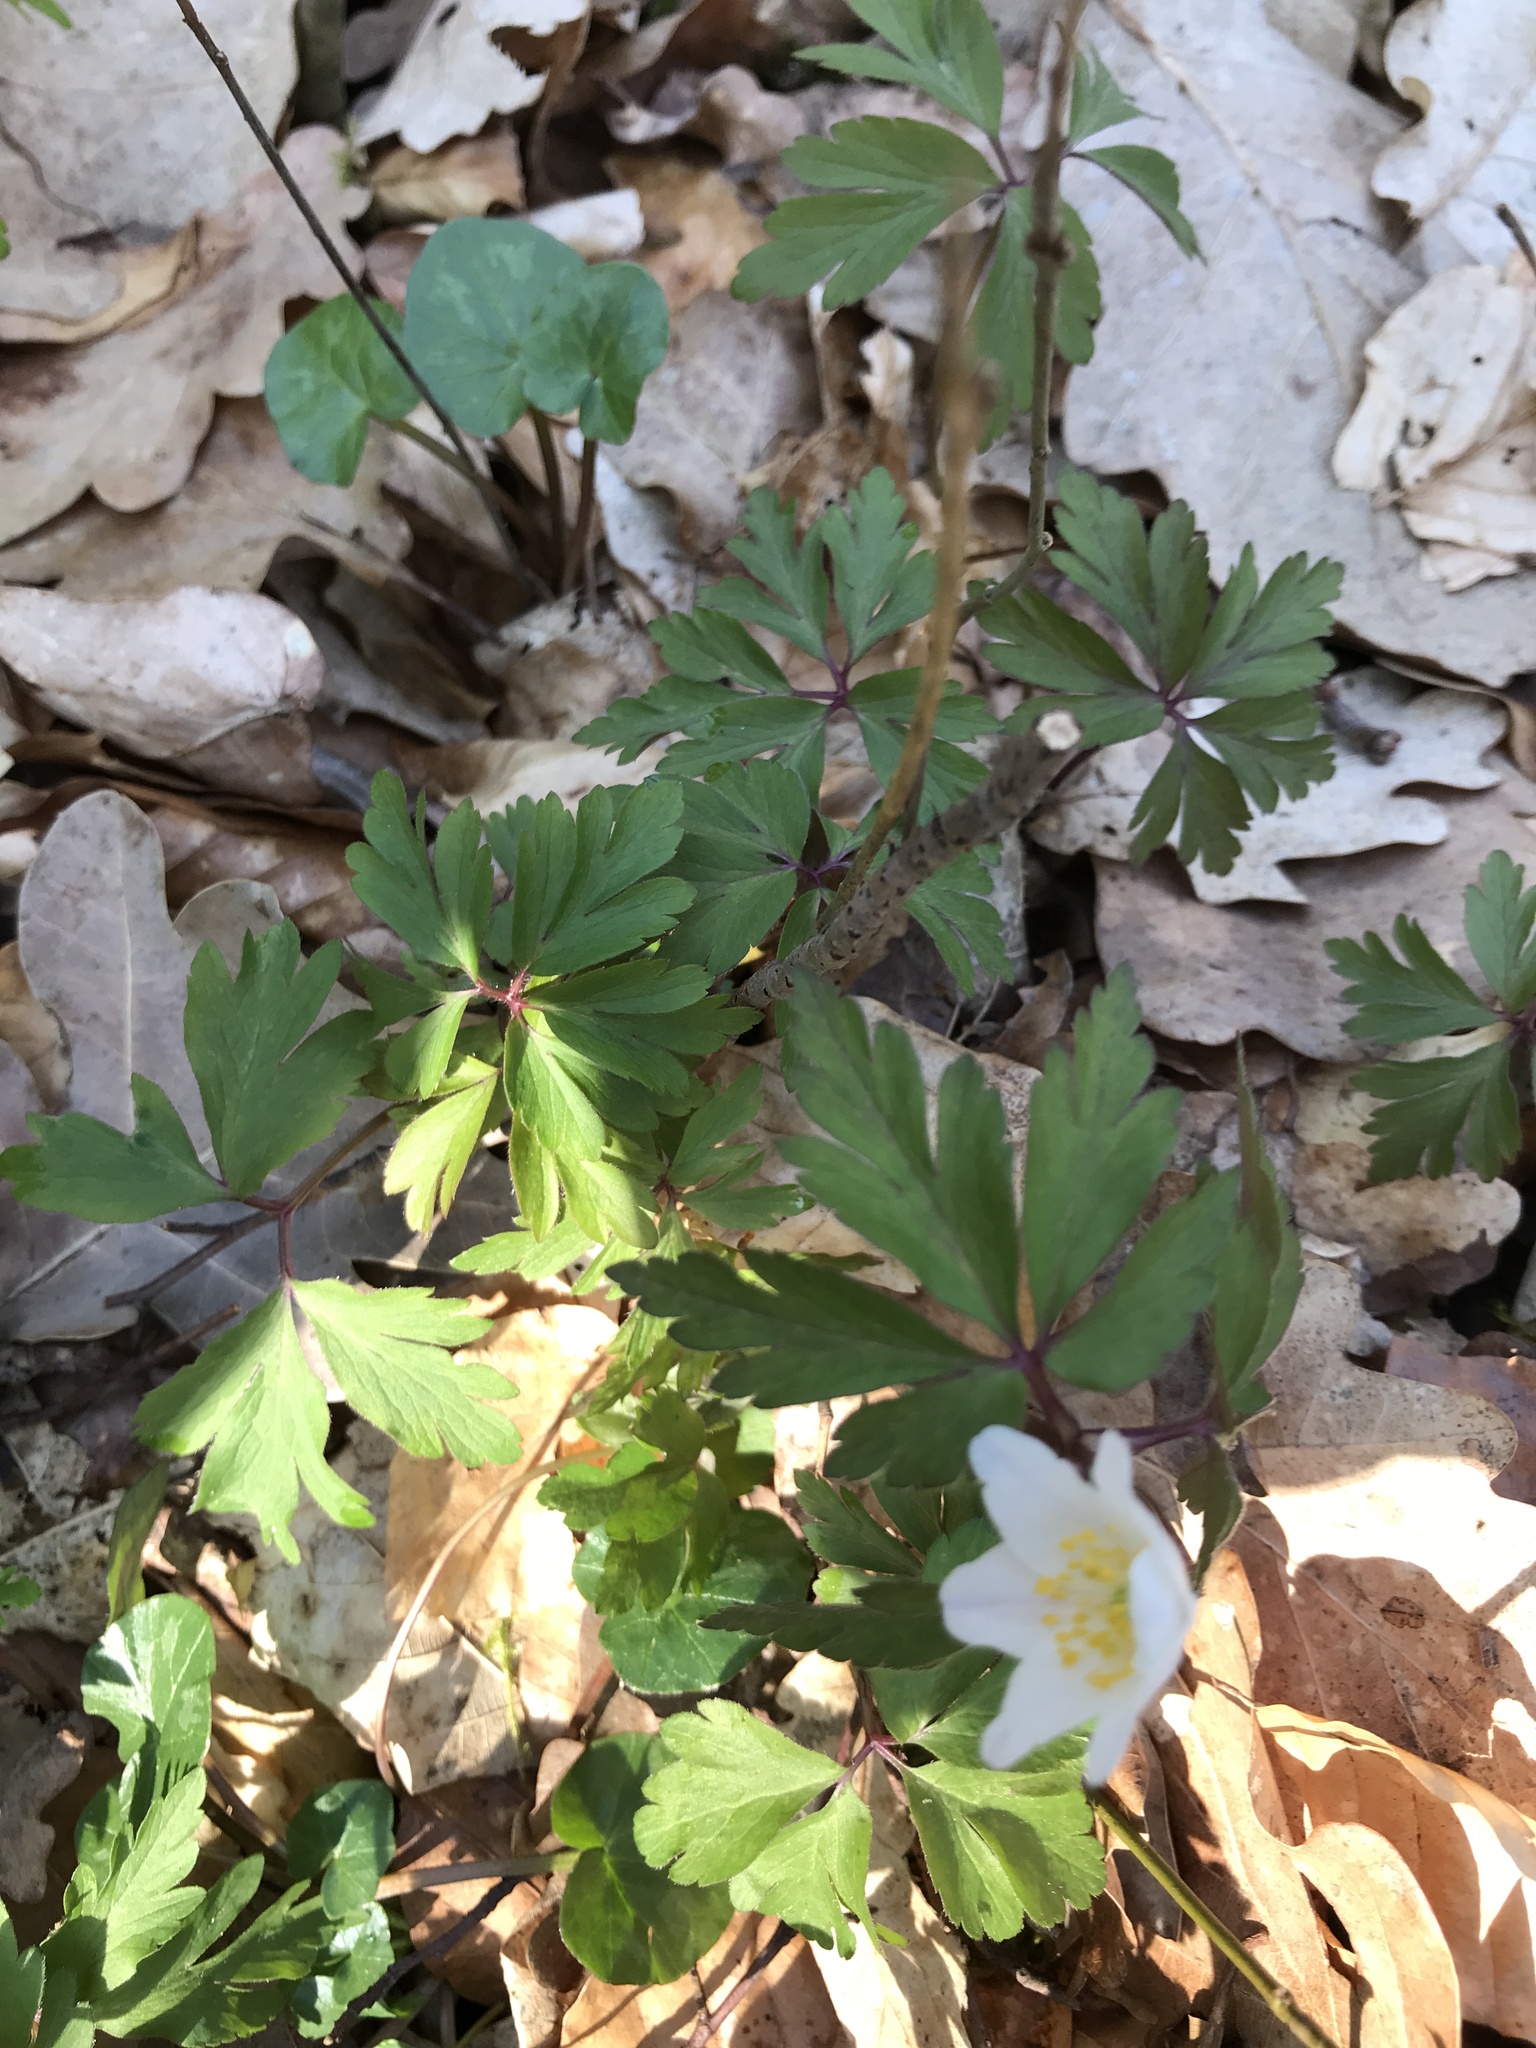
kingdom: Plantae
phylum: Tracheophyta
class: Magnoliopsida
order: Ranunculales
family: Ranunculaceae
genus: Anemone
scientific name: Anemone nemorosa
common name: Wood anemone
